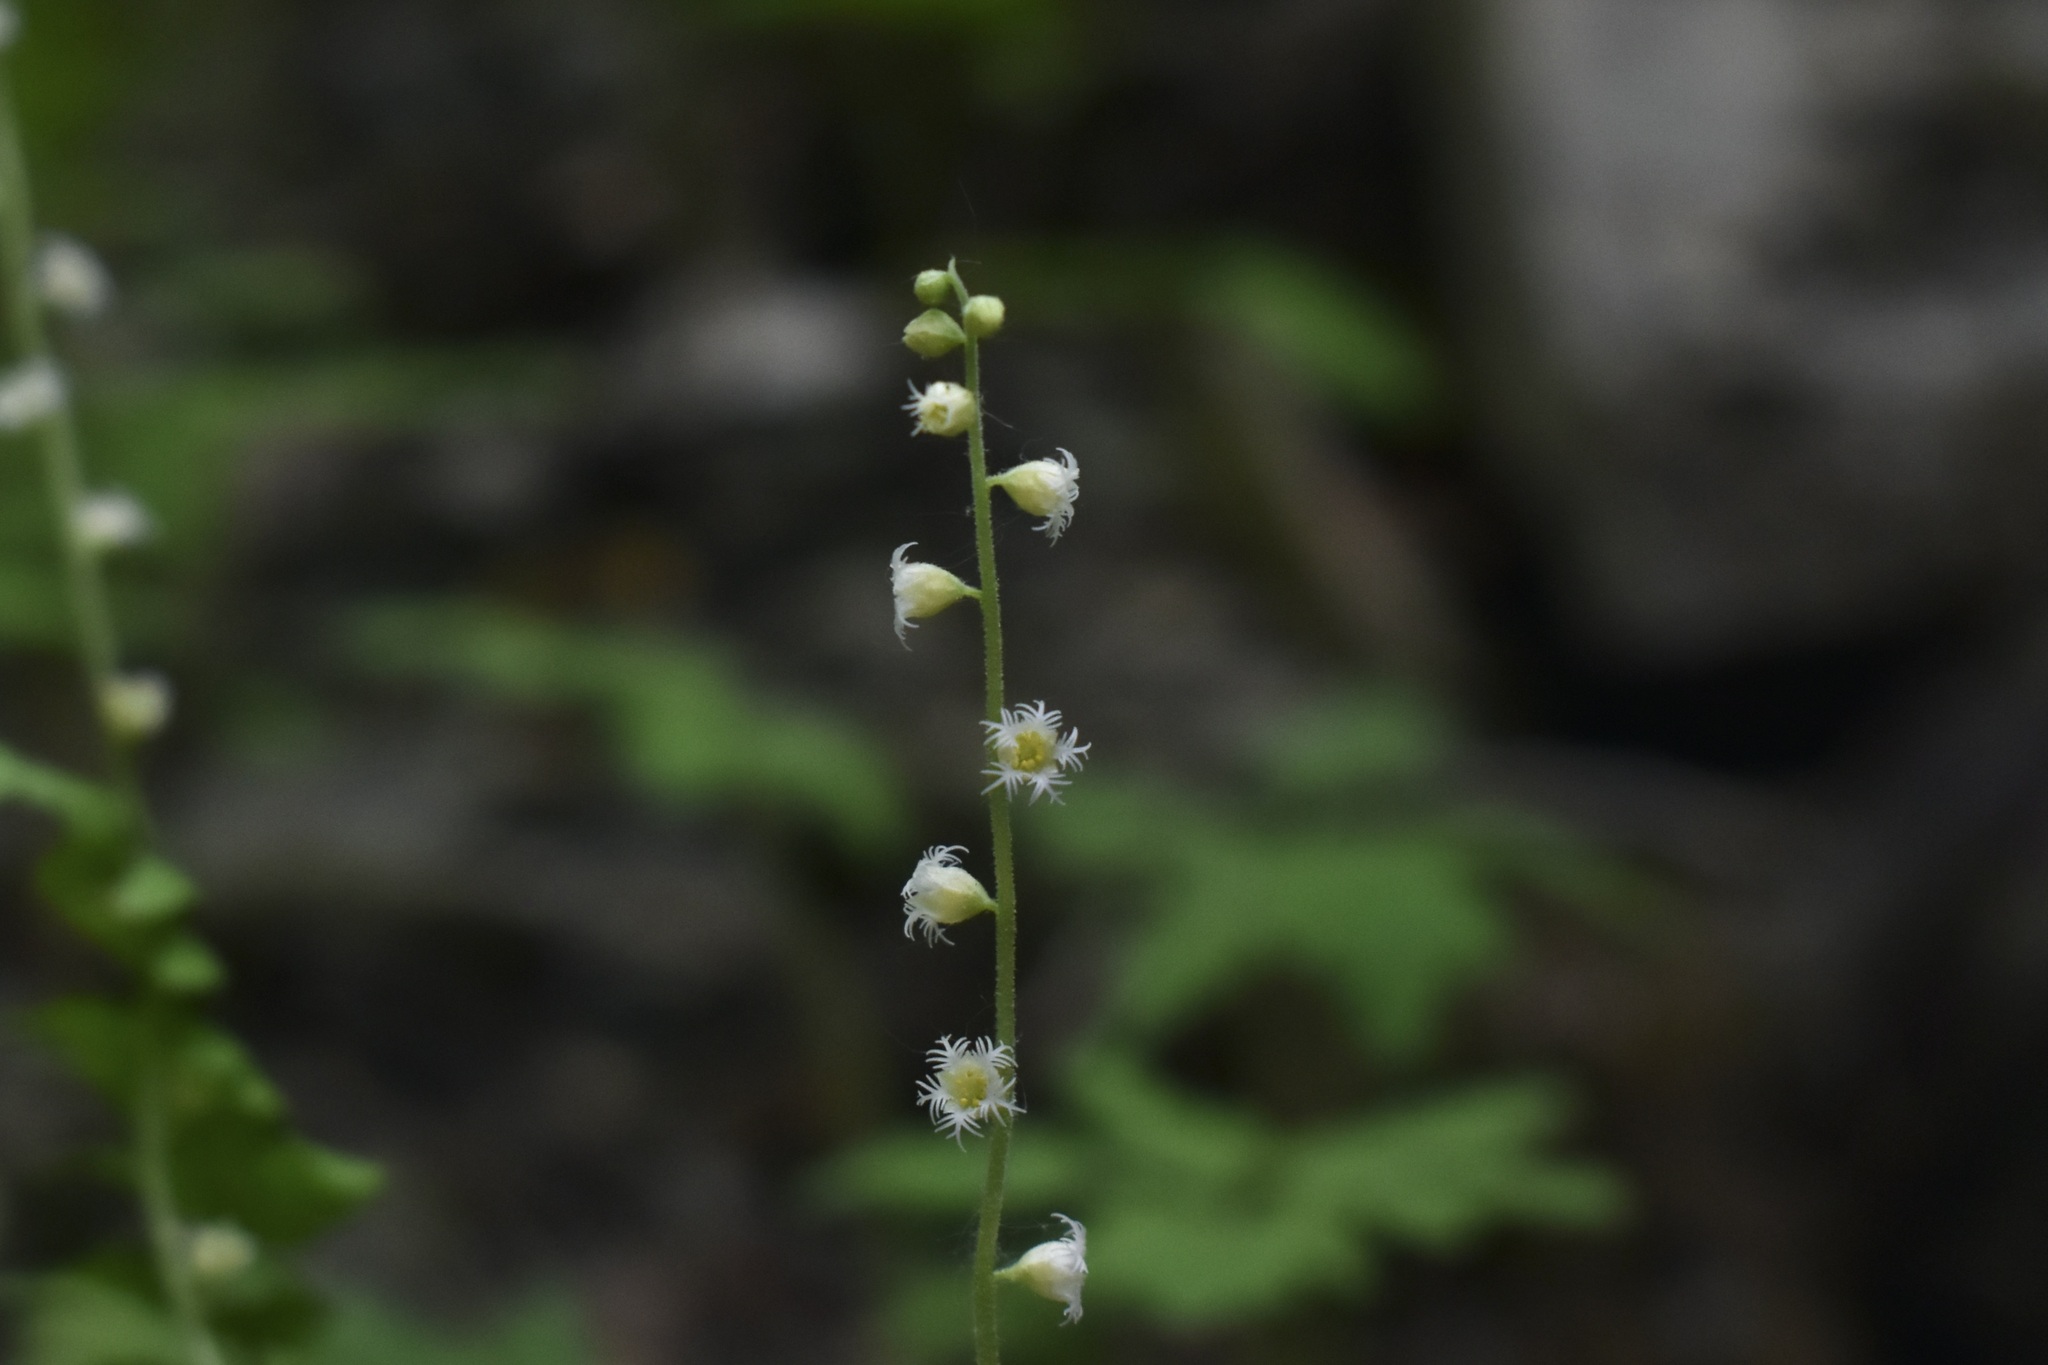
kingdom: Plantae
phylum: Tracheophyta
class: Magnoliopsida
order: Saxifragales
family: Saxifragaceae
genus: Mitella
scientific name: Mitella diphylla
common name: Coolwort
